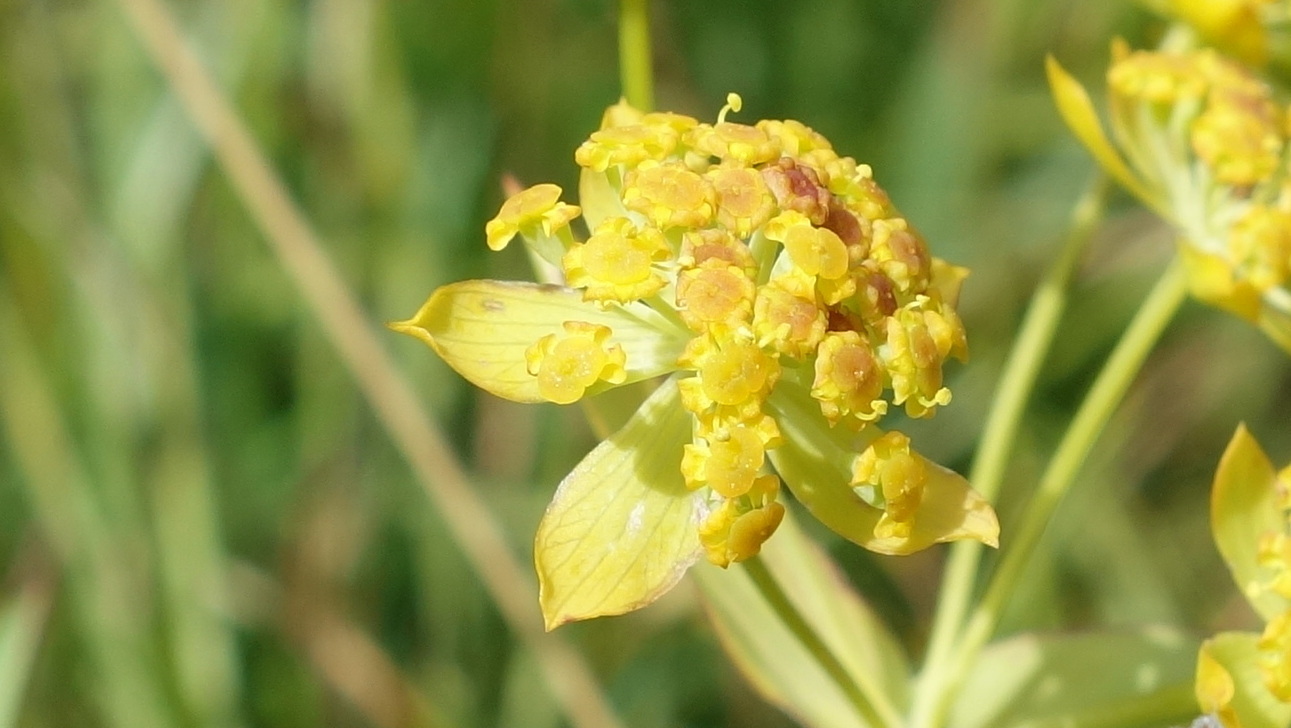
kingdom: Plantae
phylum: Tracheophyta
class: Magnoliopsida
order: Apiales
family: Apiaceae
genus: Bupleurum
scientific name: Bupleurum ranunculoides
